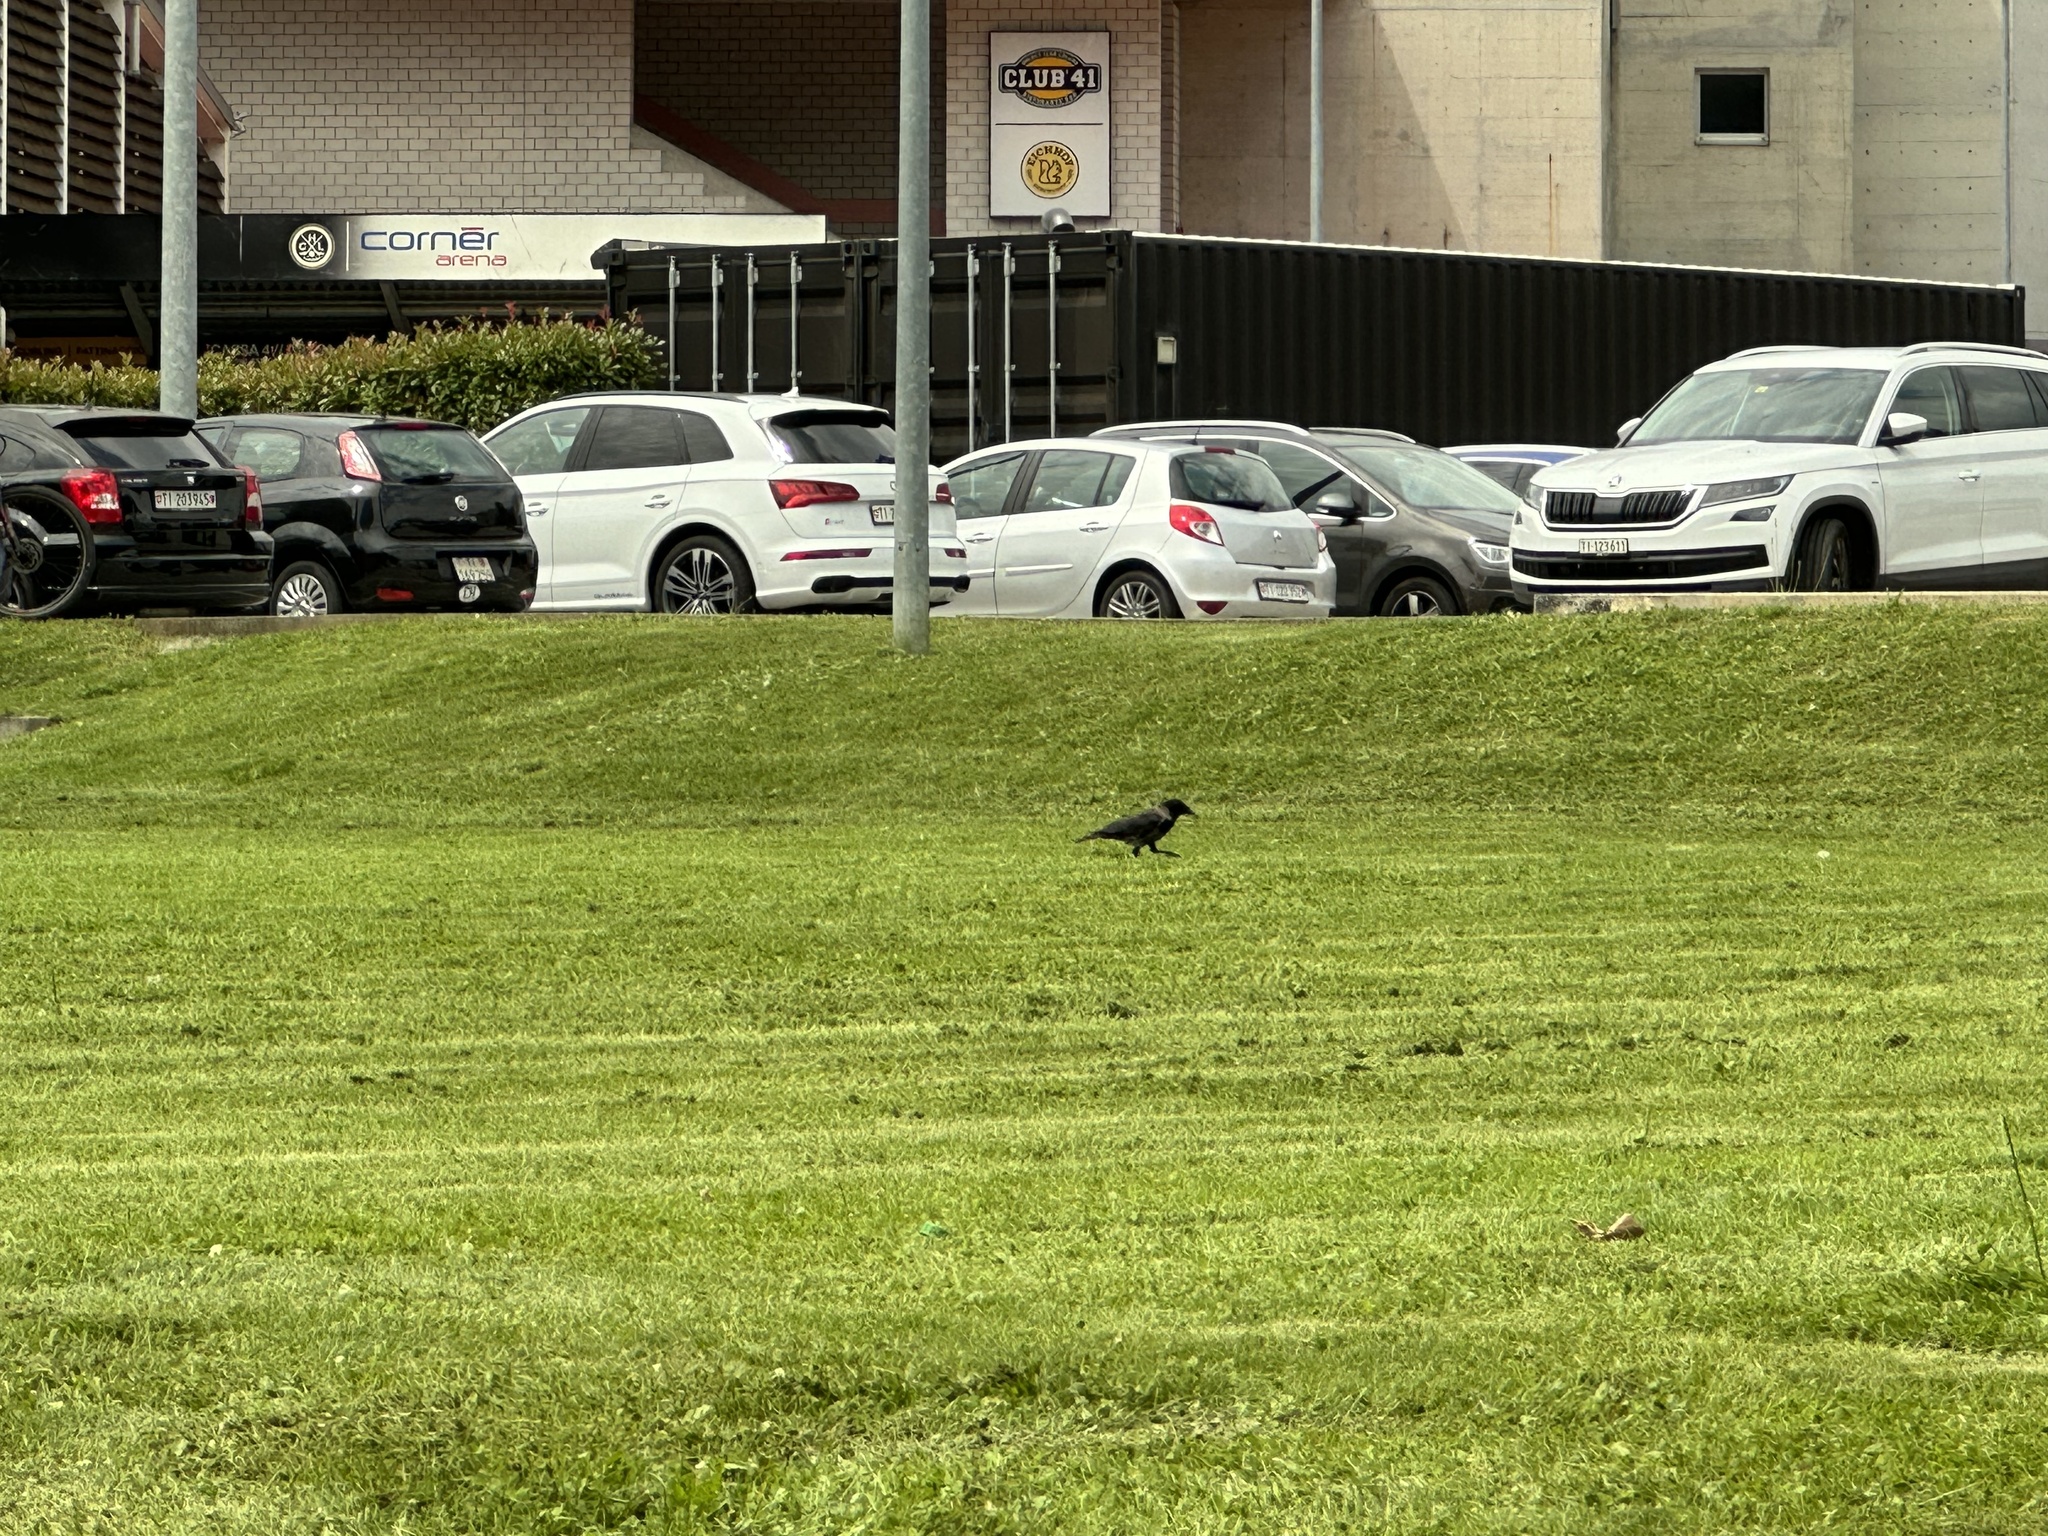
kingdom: Animalia
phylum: Chordata
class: Aves
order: Passeriformes
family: Corvidae
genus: Corvus
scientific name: Corvus cornix
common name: Hooded crow
